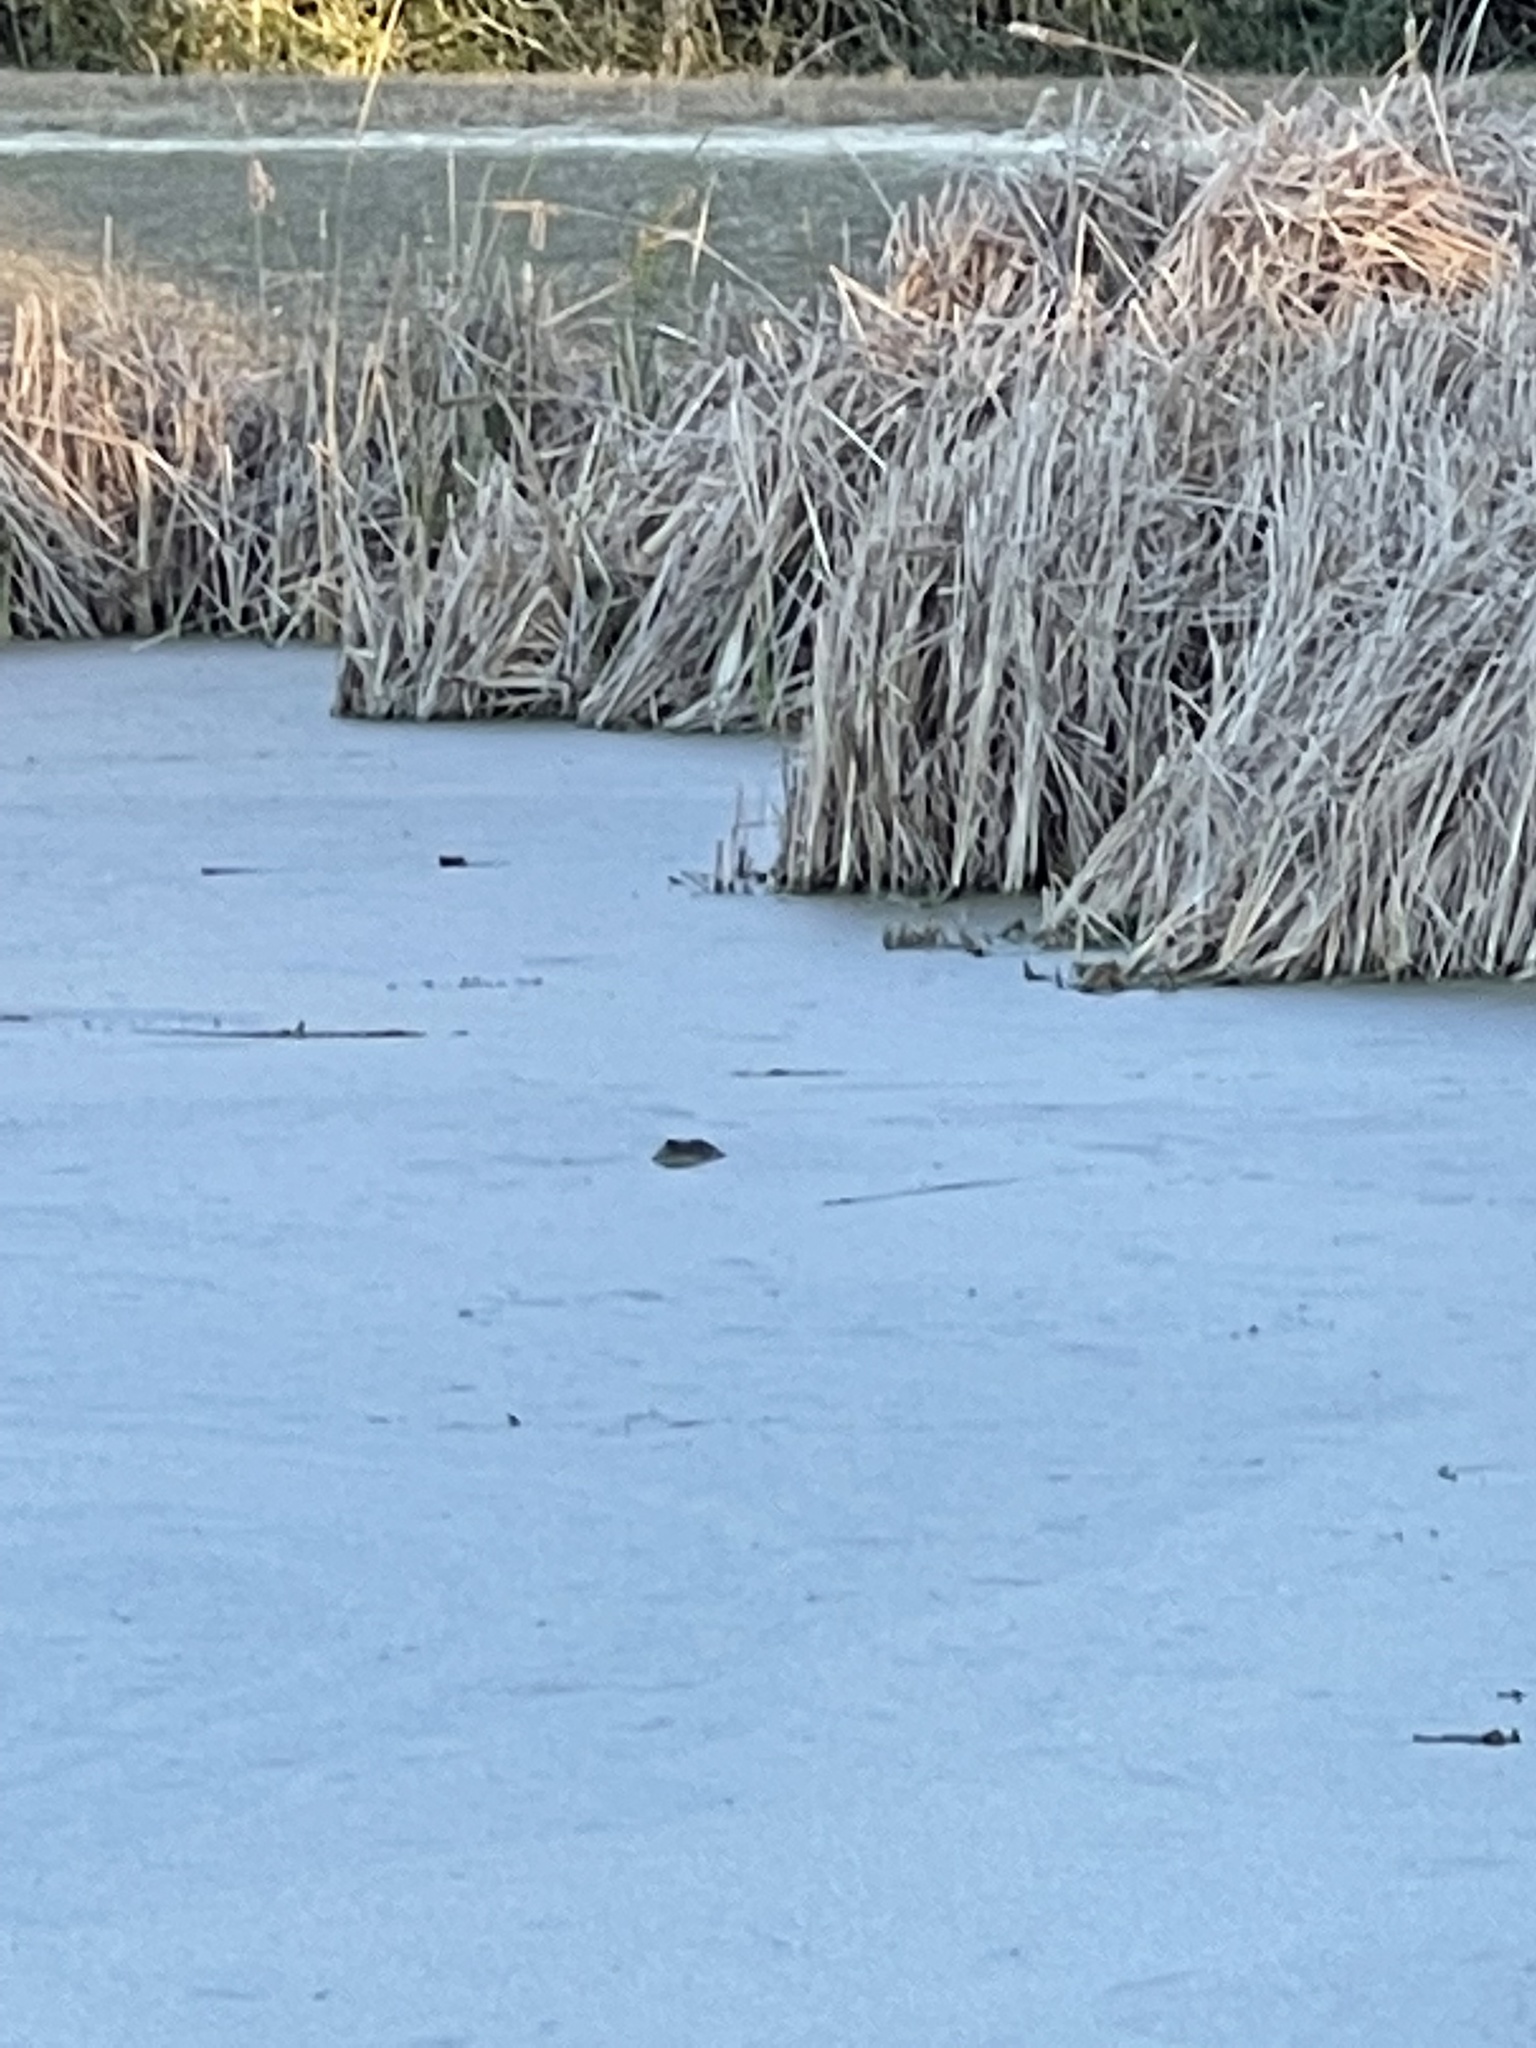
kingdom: Animalia
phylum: Chordata
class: Crocodylia
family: Alligatoridae
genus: Alligator
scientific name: Alligator mississippiensis
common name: American alligator
